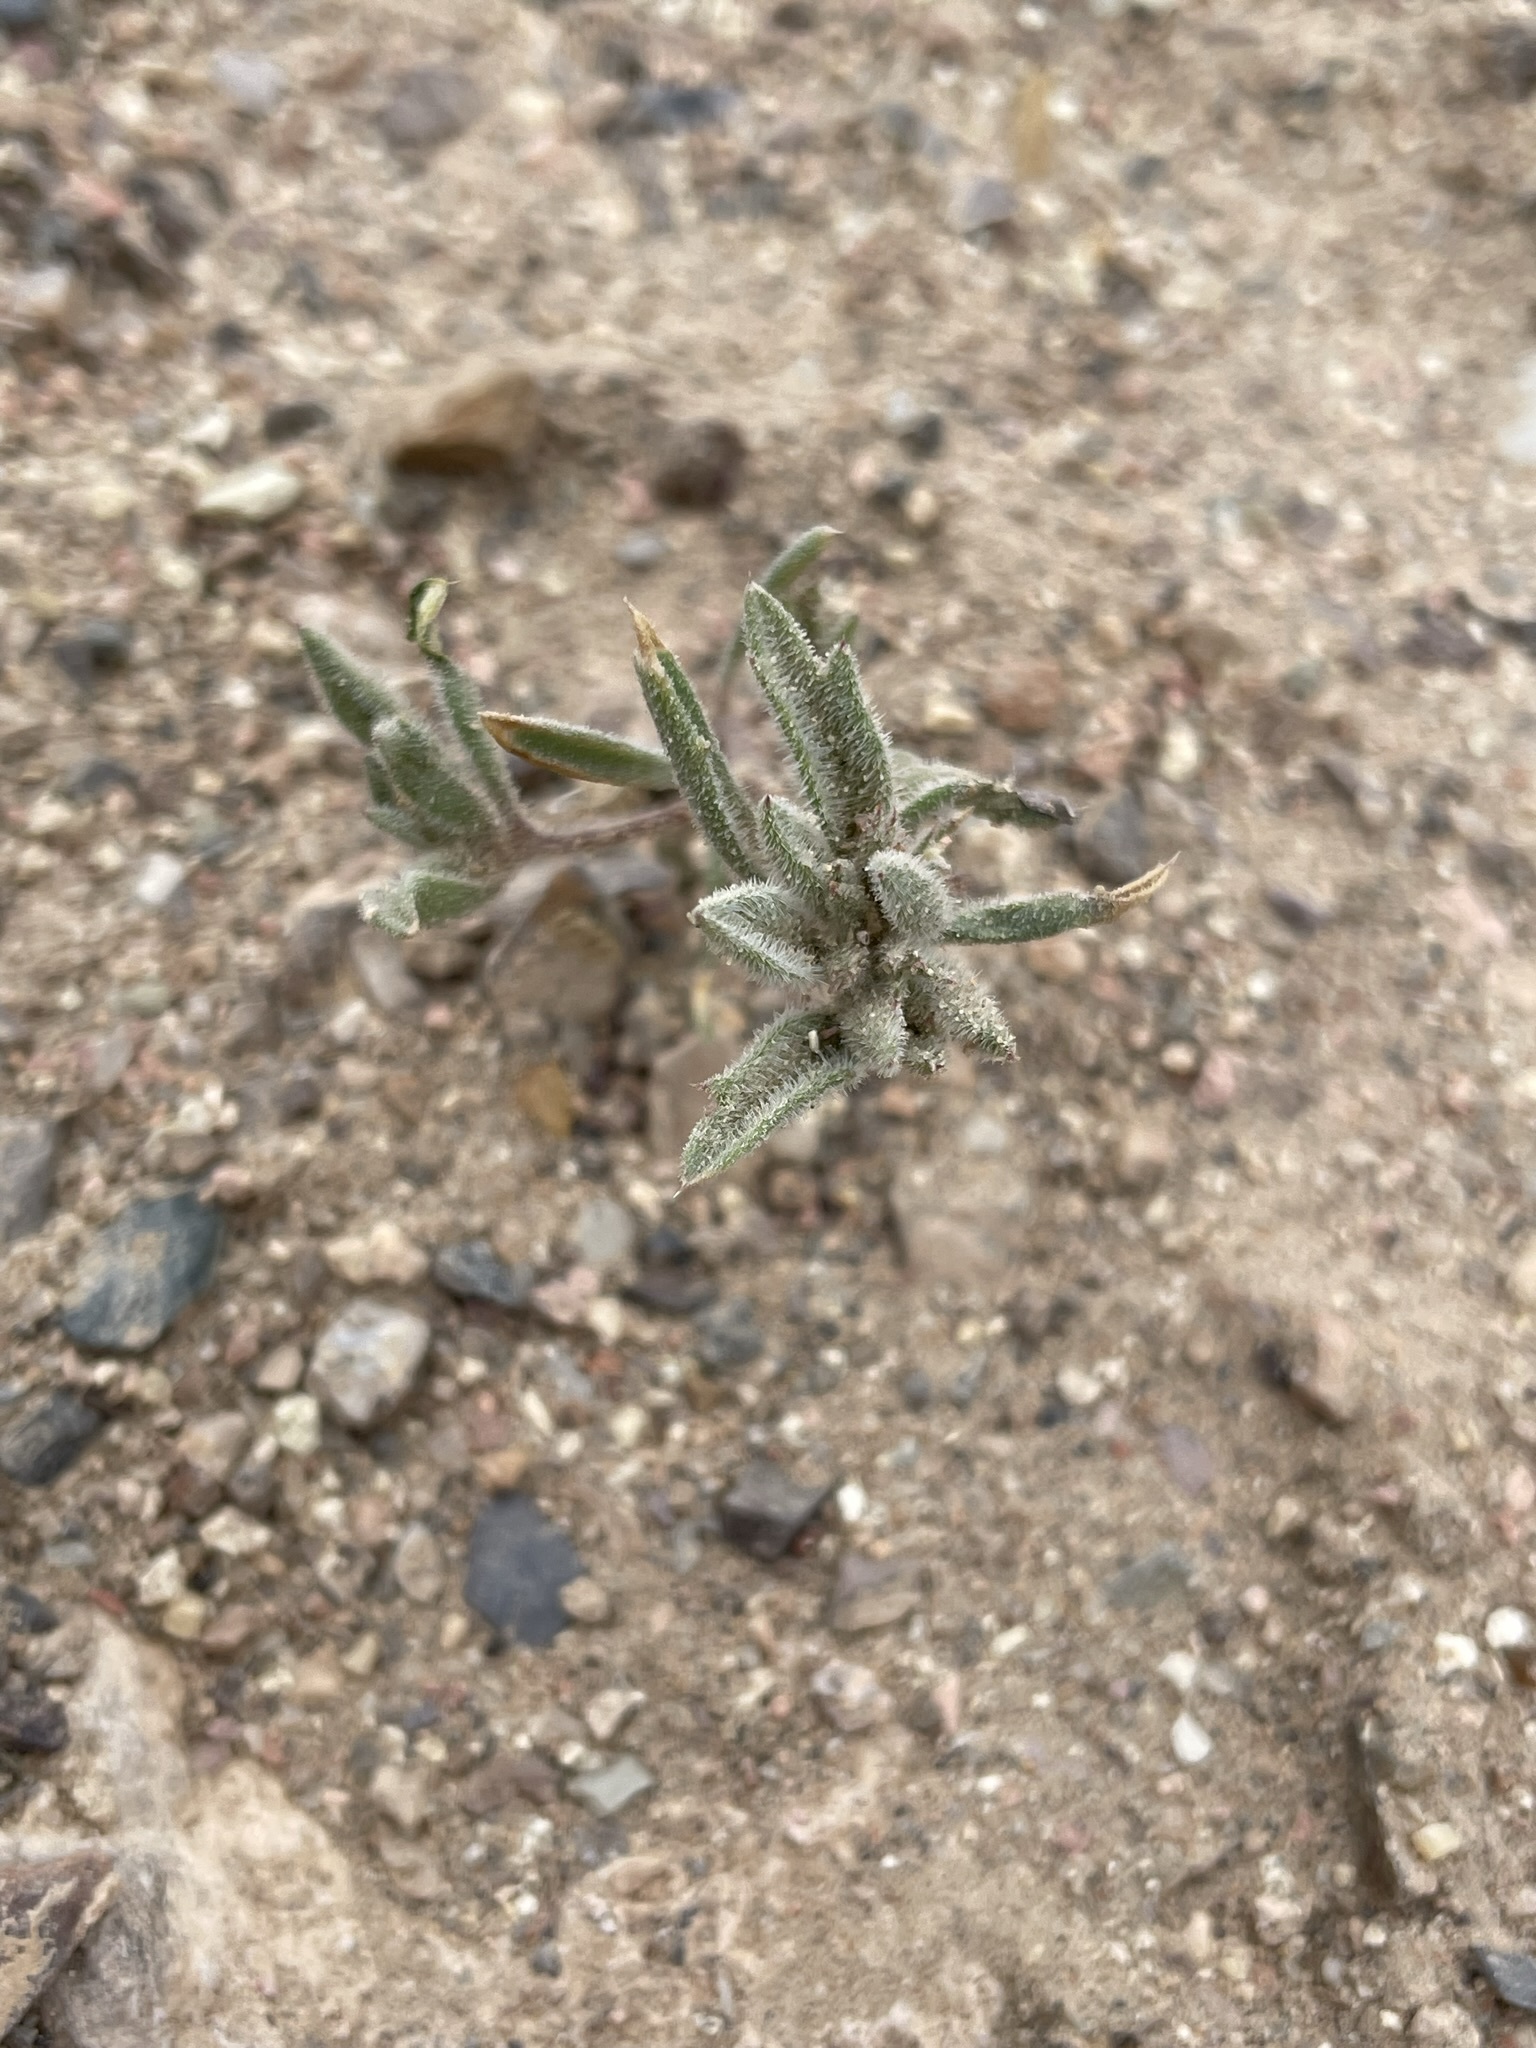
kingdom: Plantae
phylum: Tracheophyta
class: Magnoliopsida
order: Ericales
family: Polemoniaceae
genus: Loeseliastrum
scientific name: Loeseliastrum depressum
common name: Depressed ipomopsis
